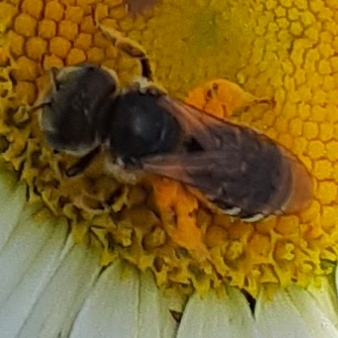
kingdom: Animalia
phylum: Arthropoda
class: Insecta
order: Hymenoptera
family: Halictidae
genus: Halictus
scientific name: Halictus ligatus
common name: Ligated furrow bee
